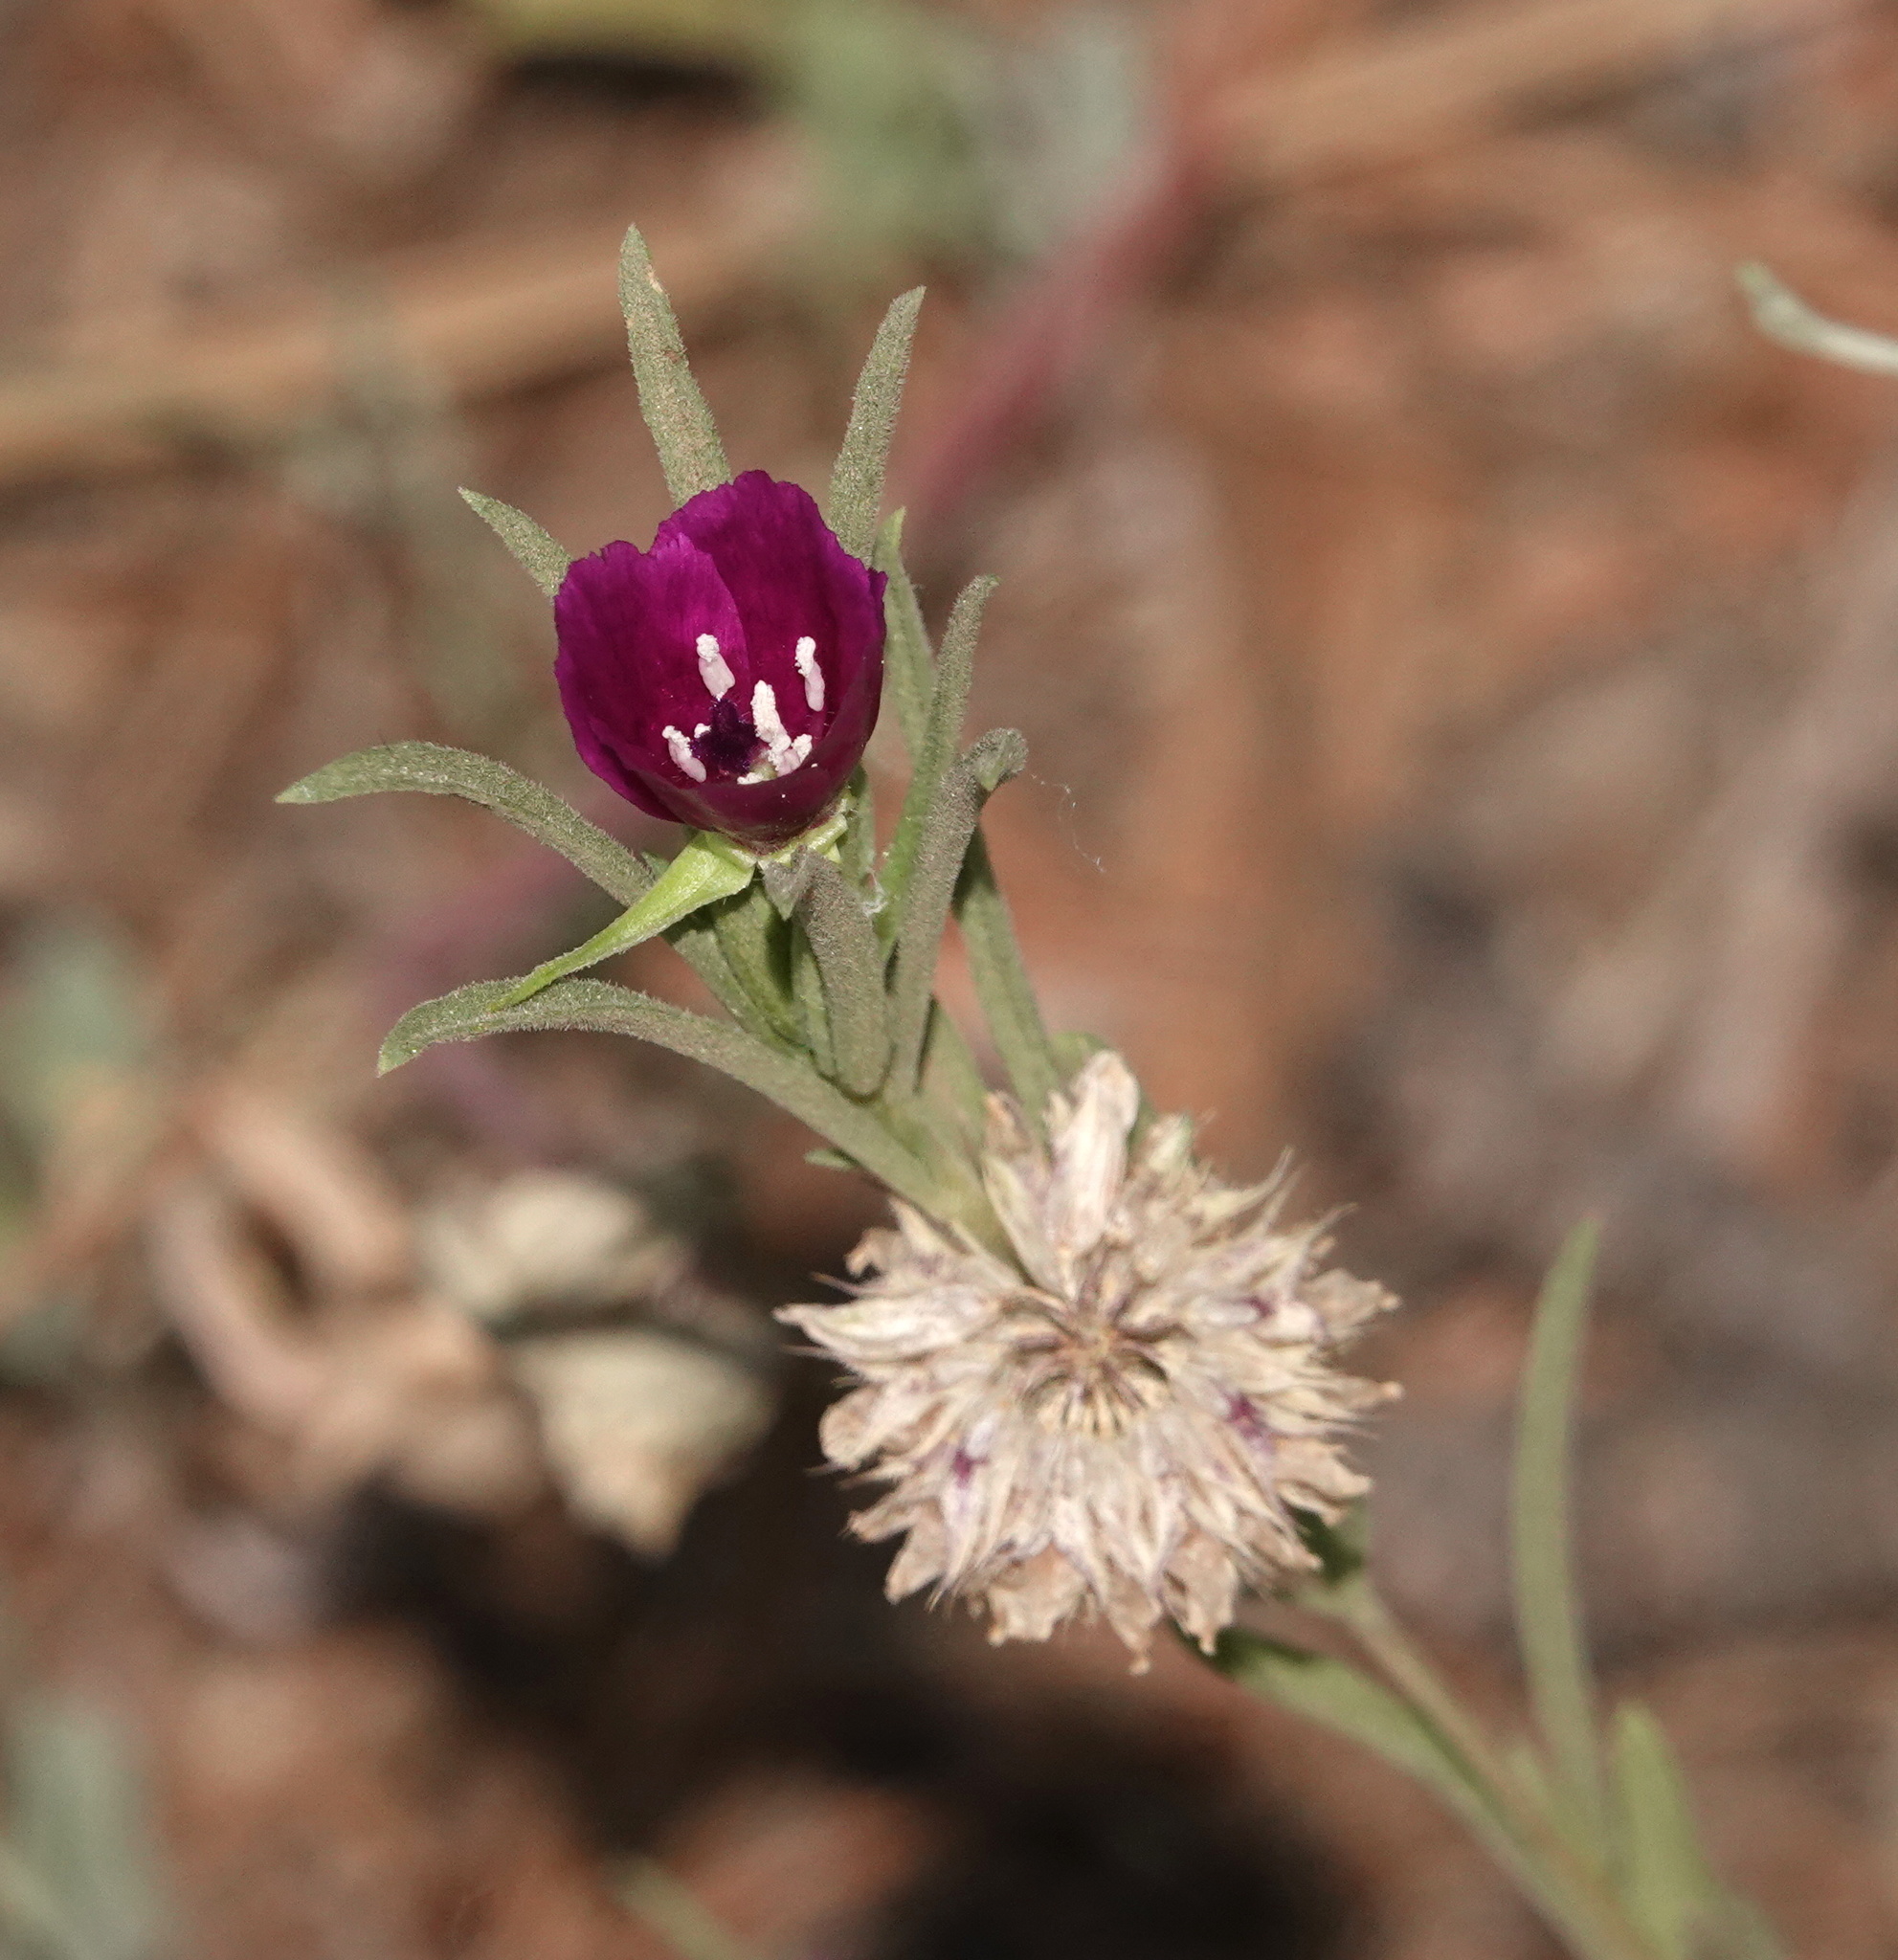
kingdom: Plantae
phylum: Tracheophyta
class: Magnoliopsida
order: Myrtales
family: Onagraceae
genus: Clarkia
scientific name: Clarkia purpurea
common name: Purple clarkia
